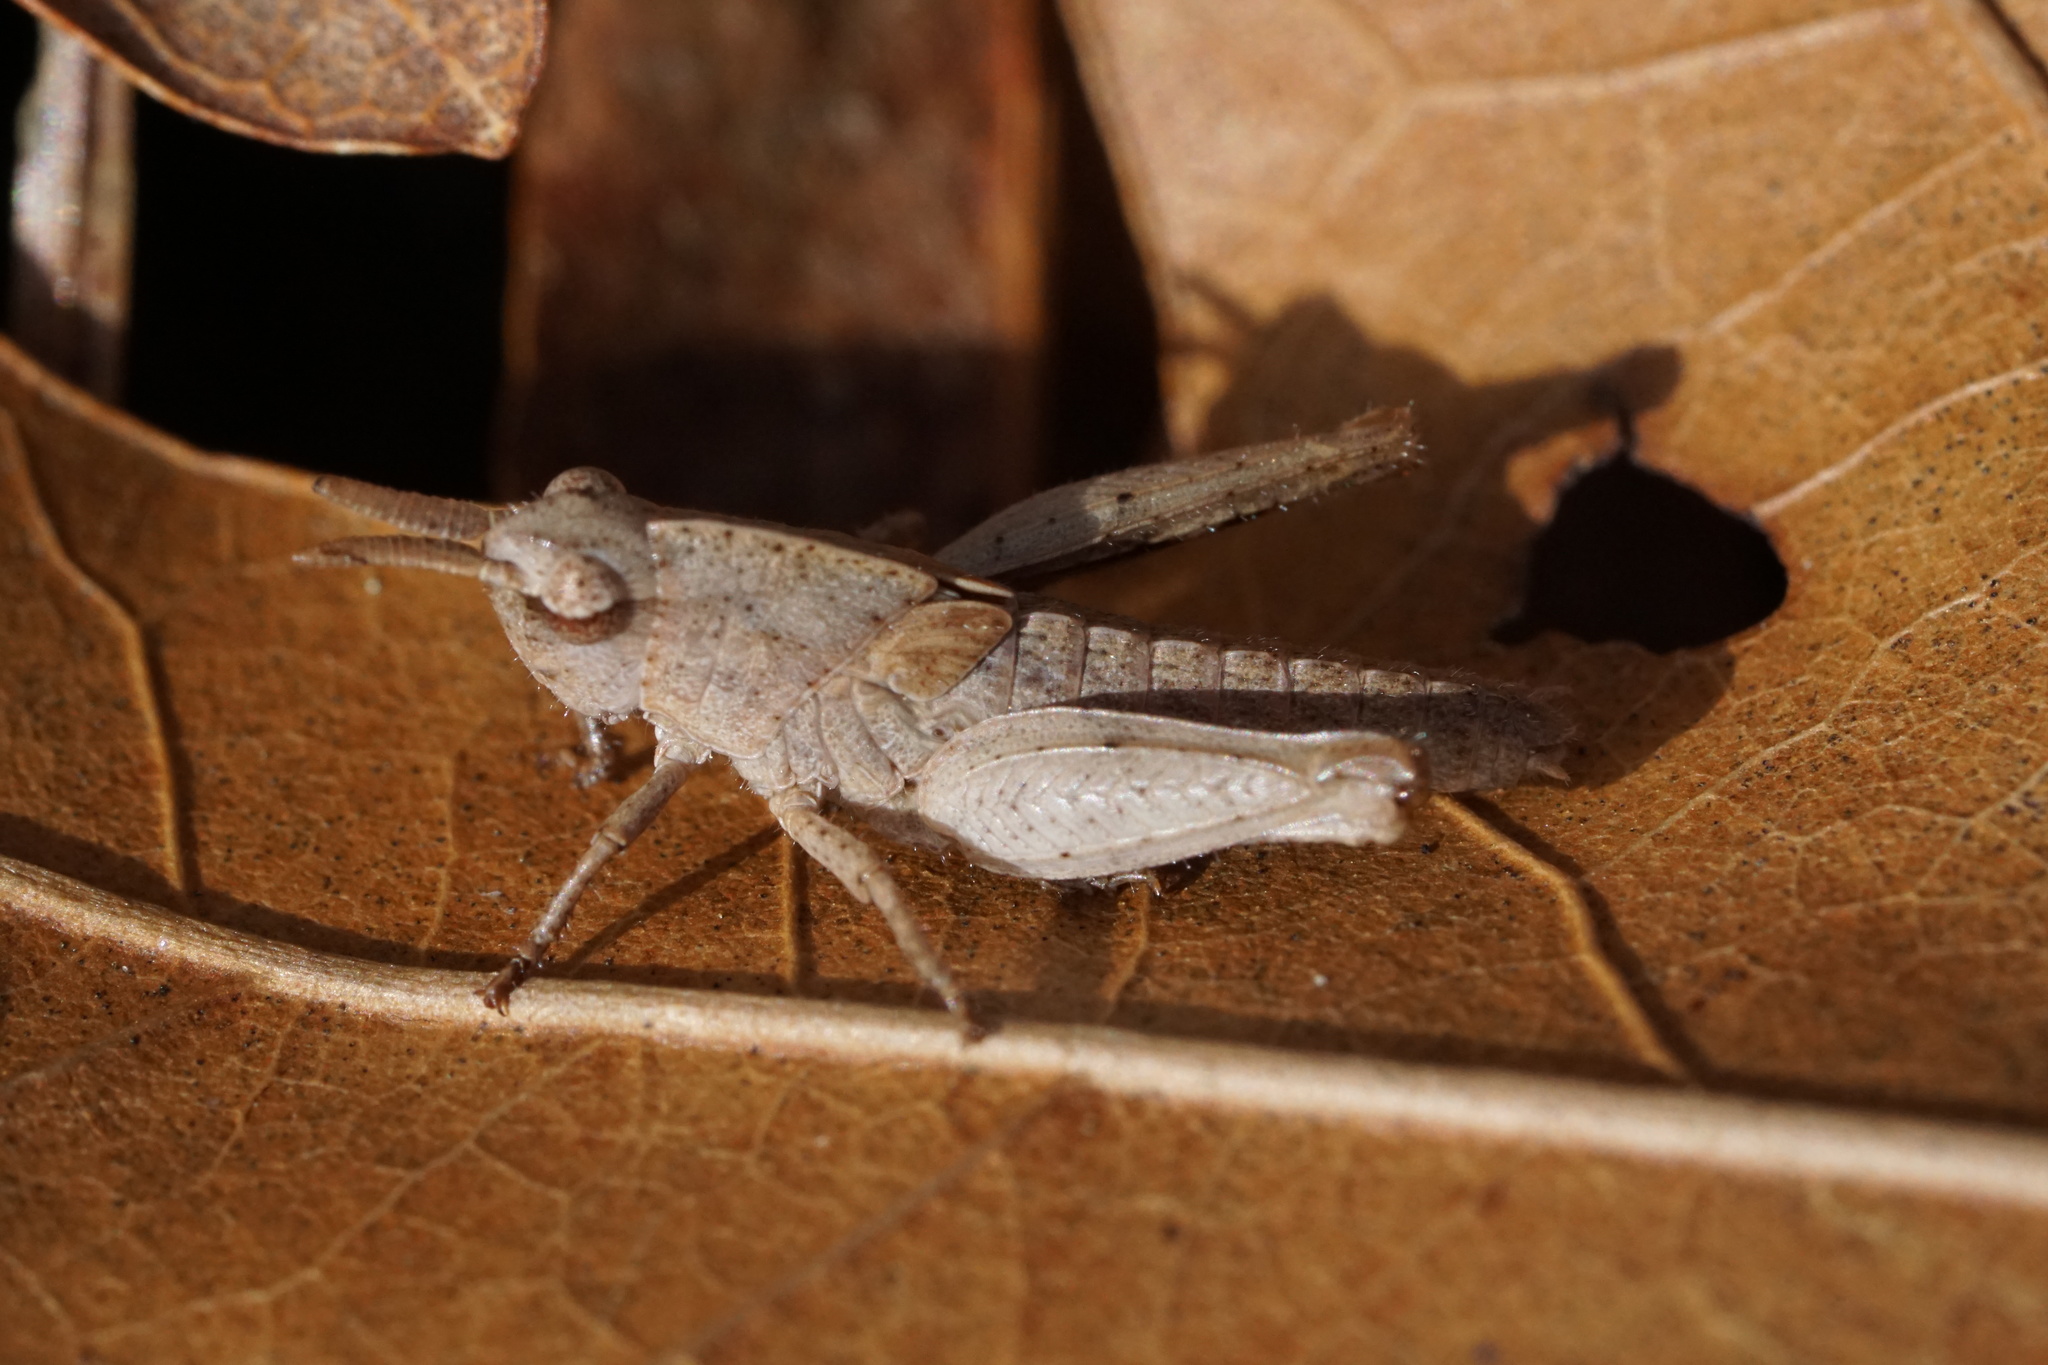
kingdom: Animalia
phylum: Arthropoda
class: Insecta
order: Orthoptera
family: Acrididae
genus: Chortophaga
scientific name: Chortophaga viridifasciata
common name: Green-striped grasshopper
